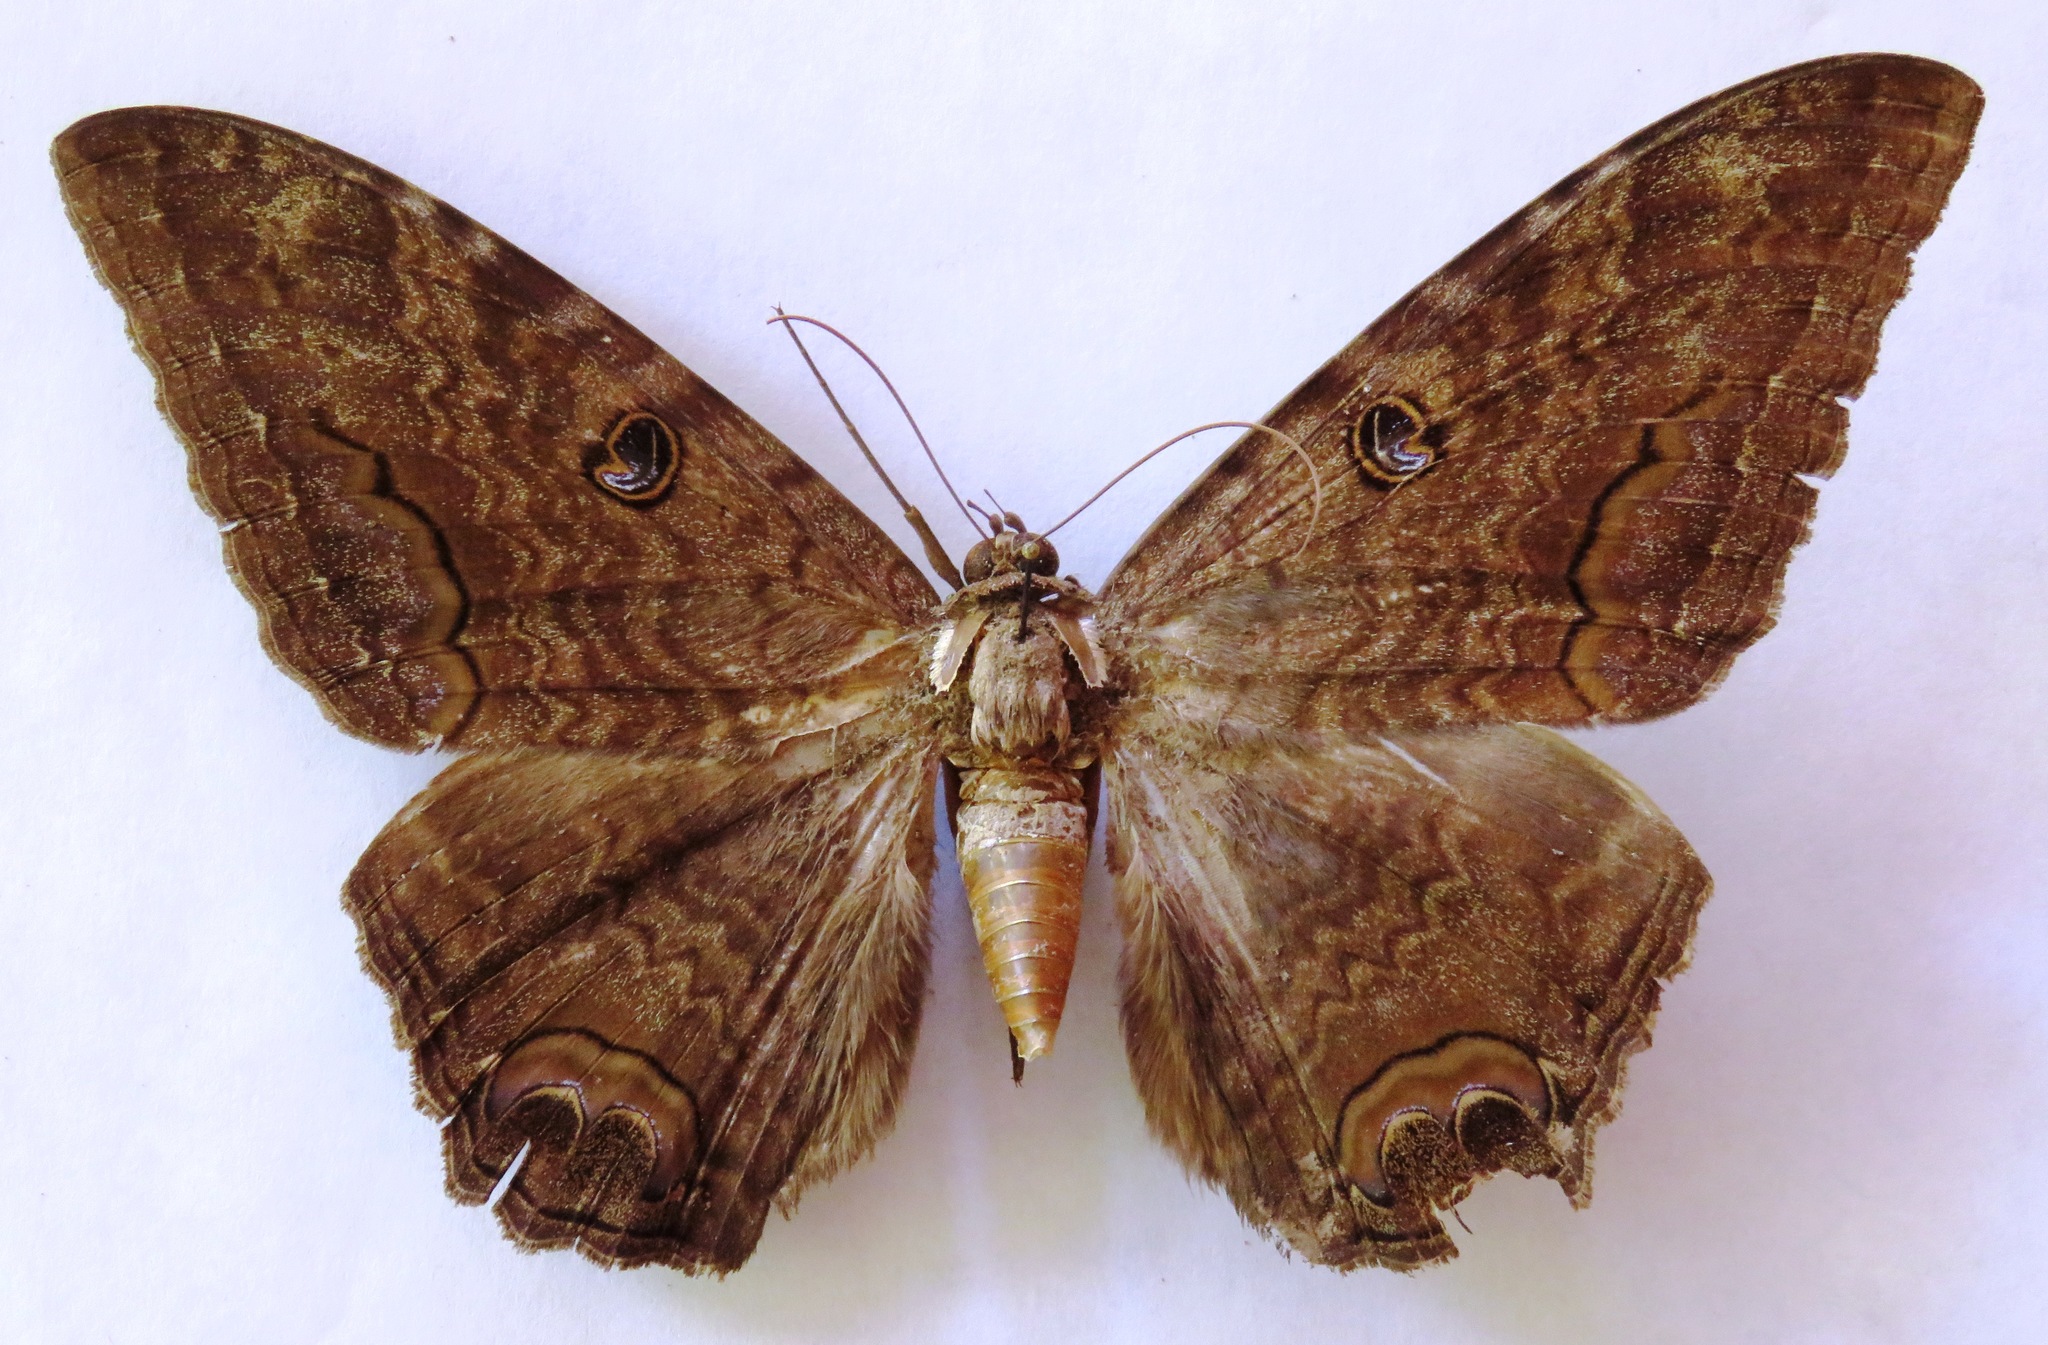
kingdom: Animalia
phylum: Arthropoda
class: Insecta
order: Lepidoptera
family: Erebidae
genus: Ascalapha
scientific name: Ascalapha odorata
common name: Black witch
